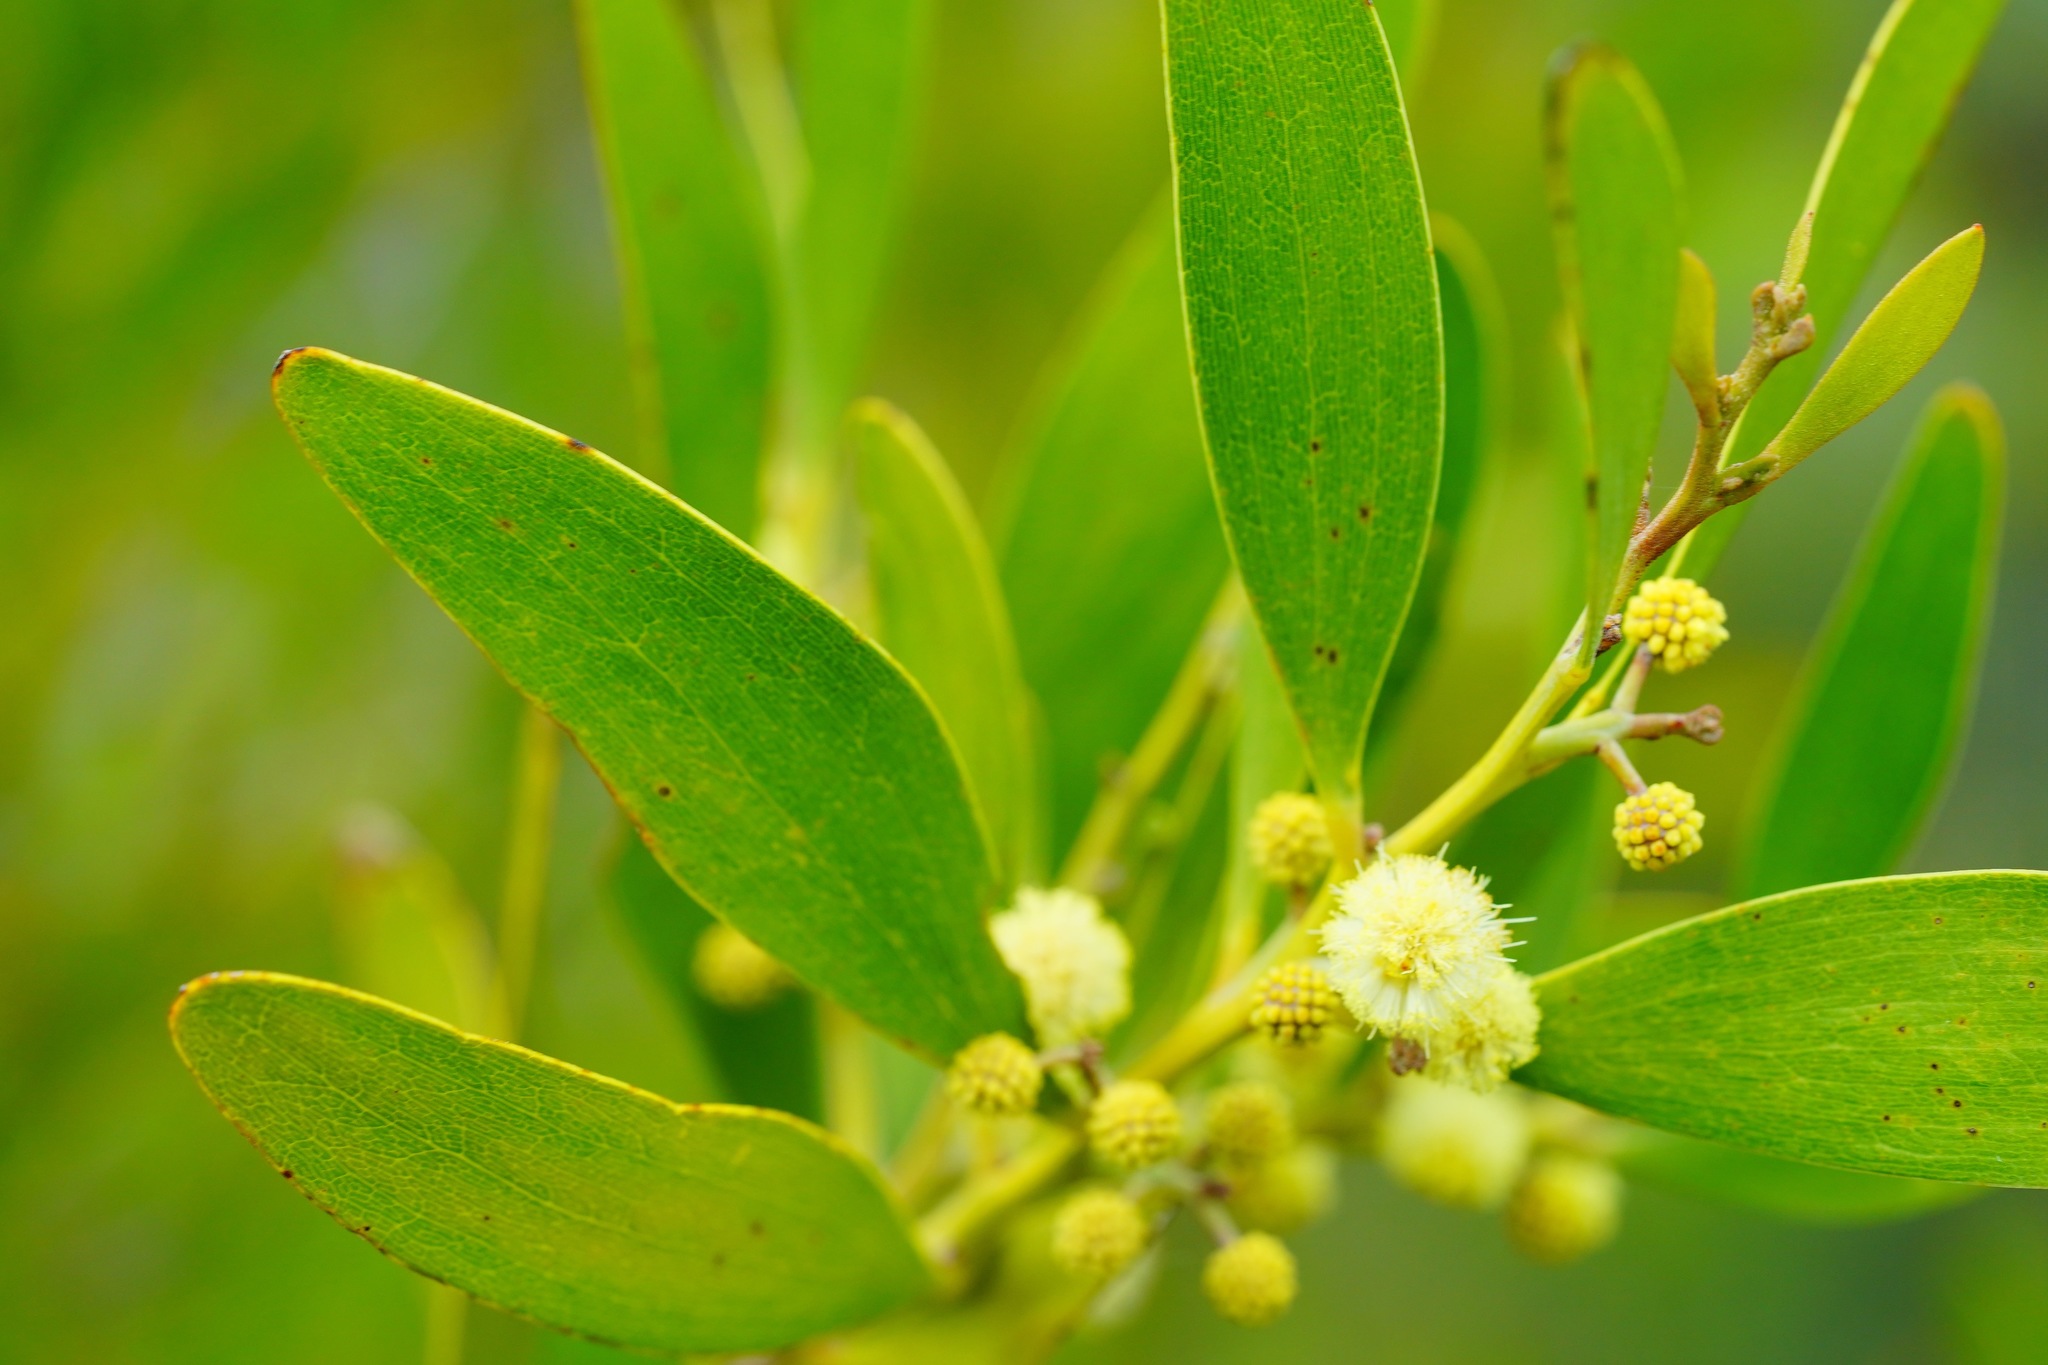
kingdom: Plantae
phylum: Tracheophyta
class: Magnoliopsida
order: Fabales
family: Fabaceae
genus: Acacia
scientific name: Acacia melanoxylon
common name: Blackwood
